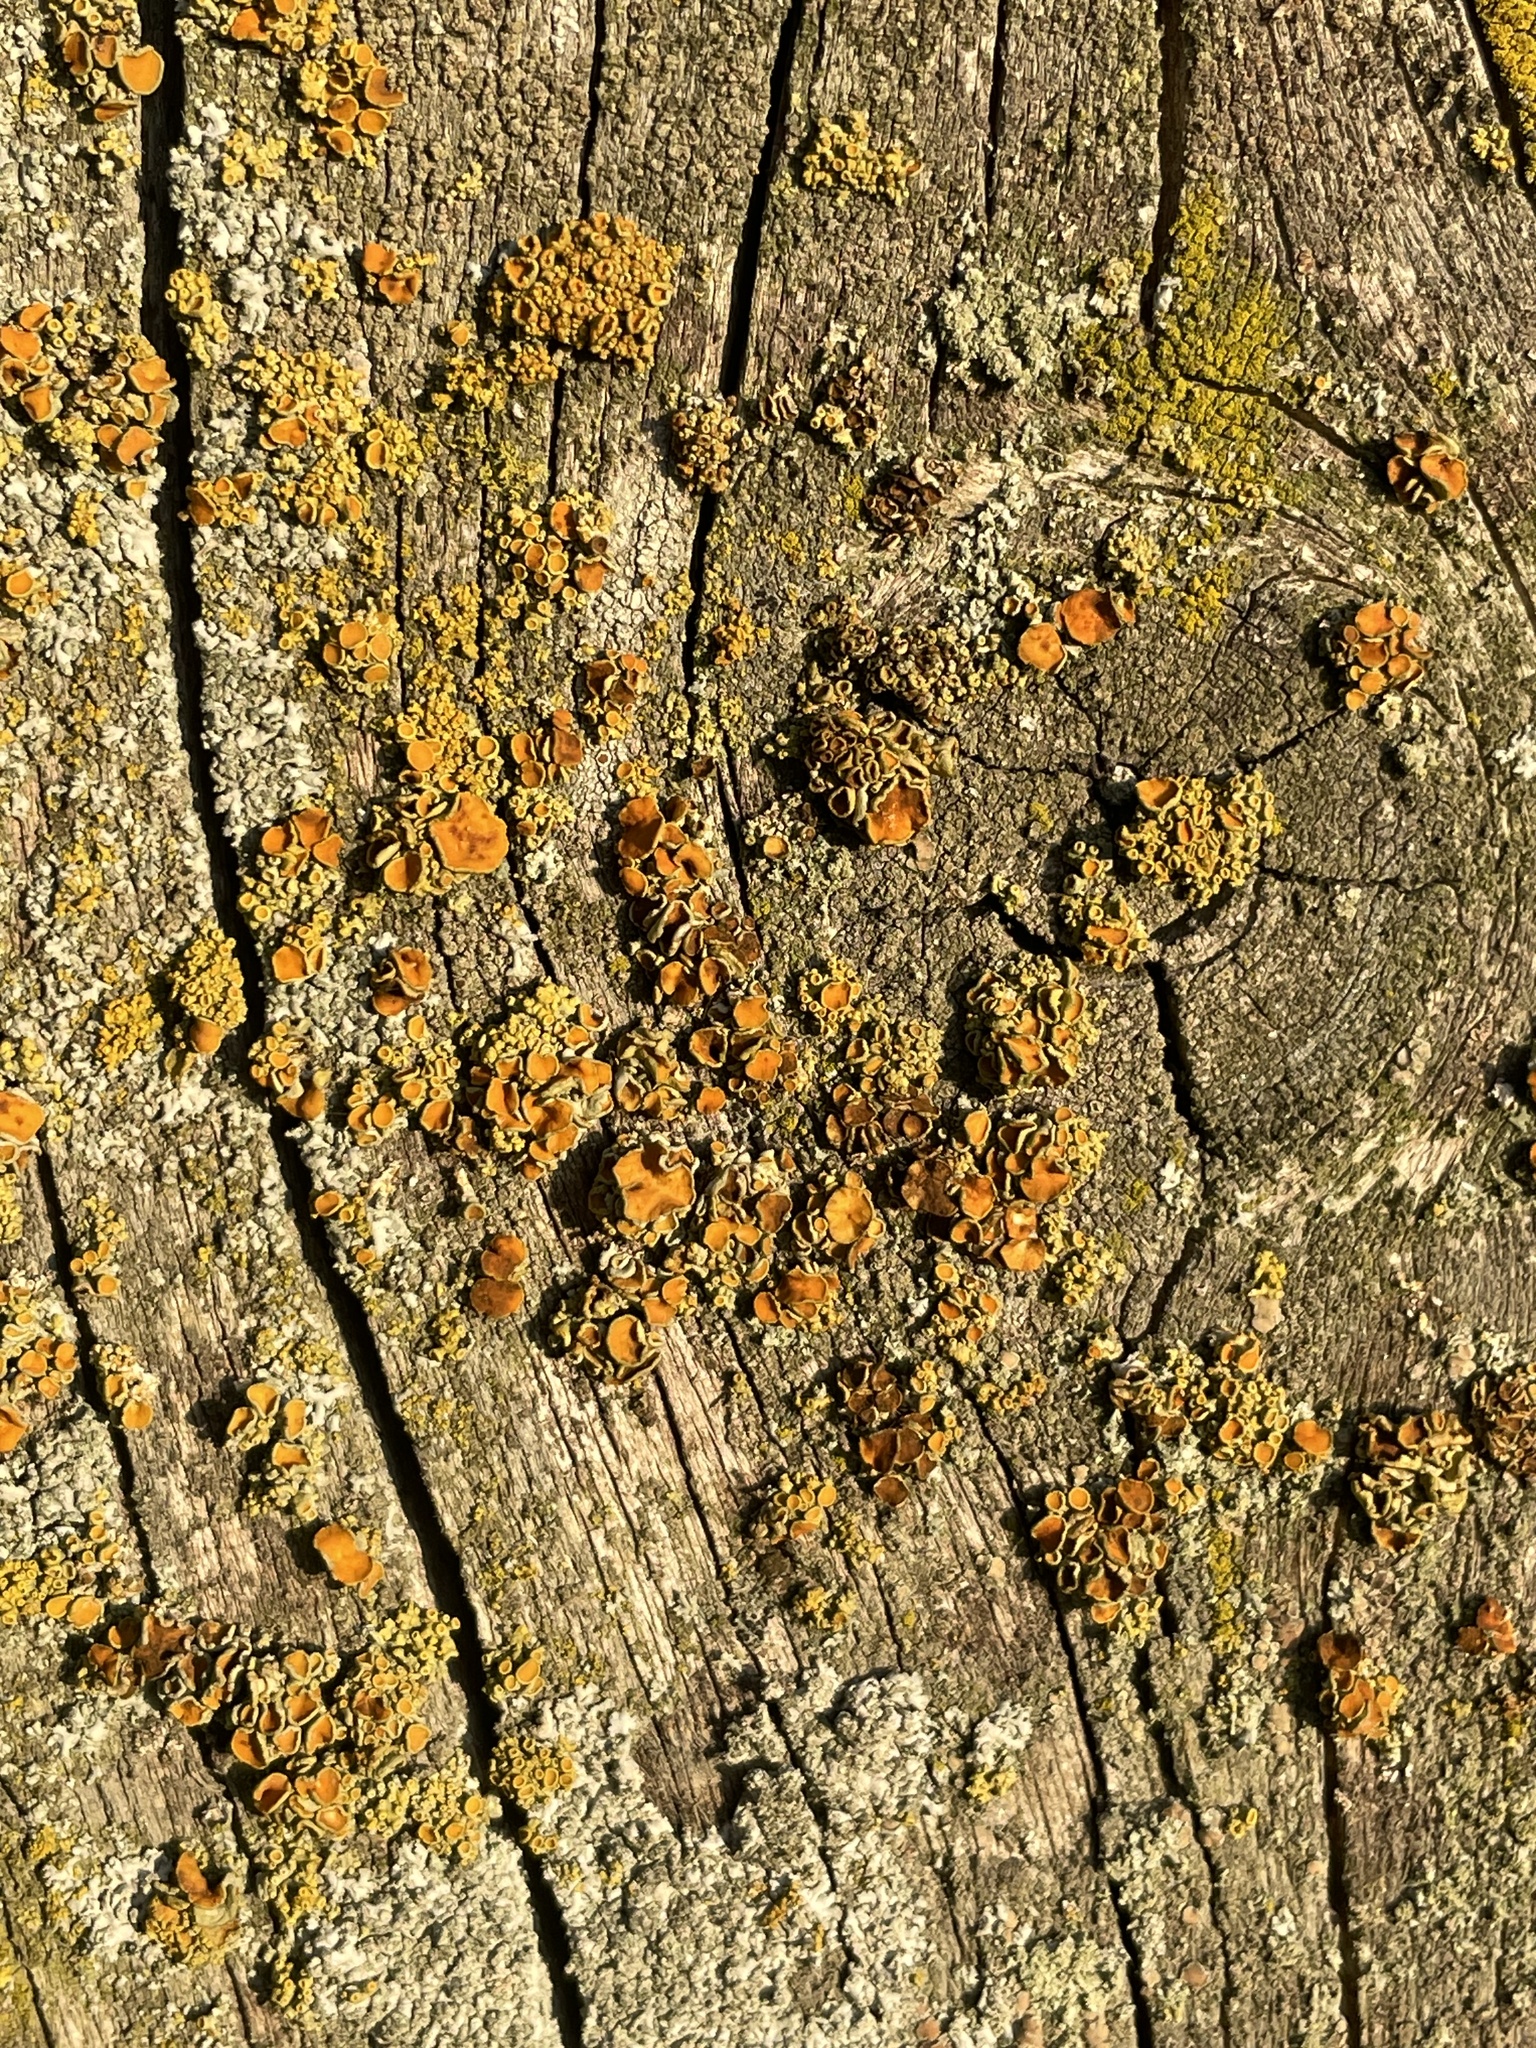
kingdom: Fungi
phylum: Ascomycota
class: Lecanoromycetes
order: Teloschistales
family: Teloschistaceae
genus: Polycauliona
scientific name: Polycauliona polycarpa
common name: Pin-cushion sunburst lichen
